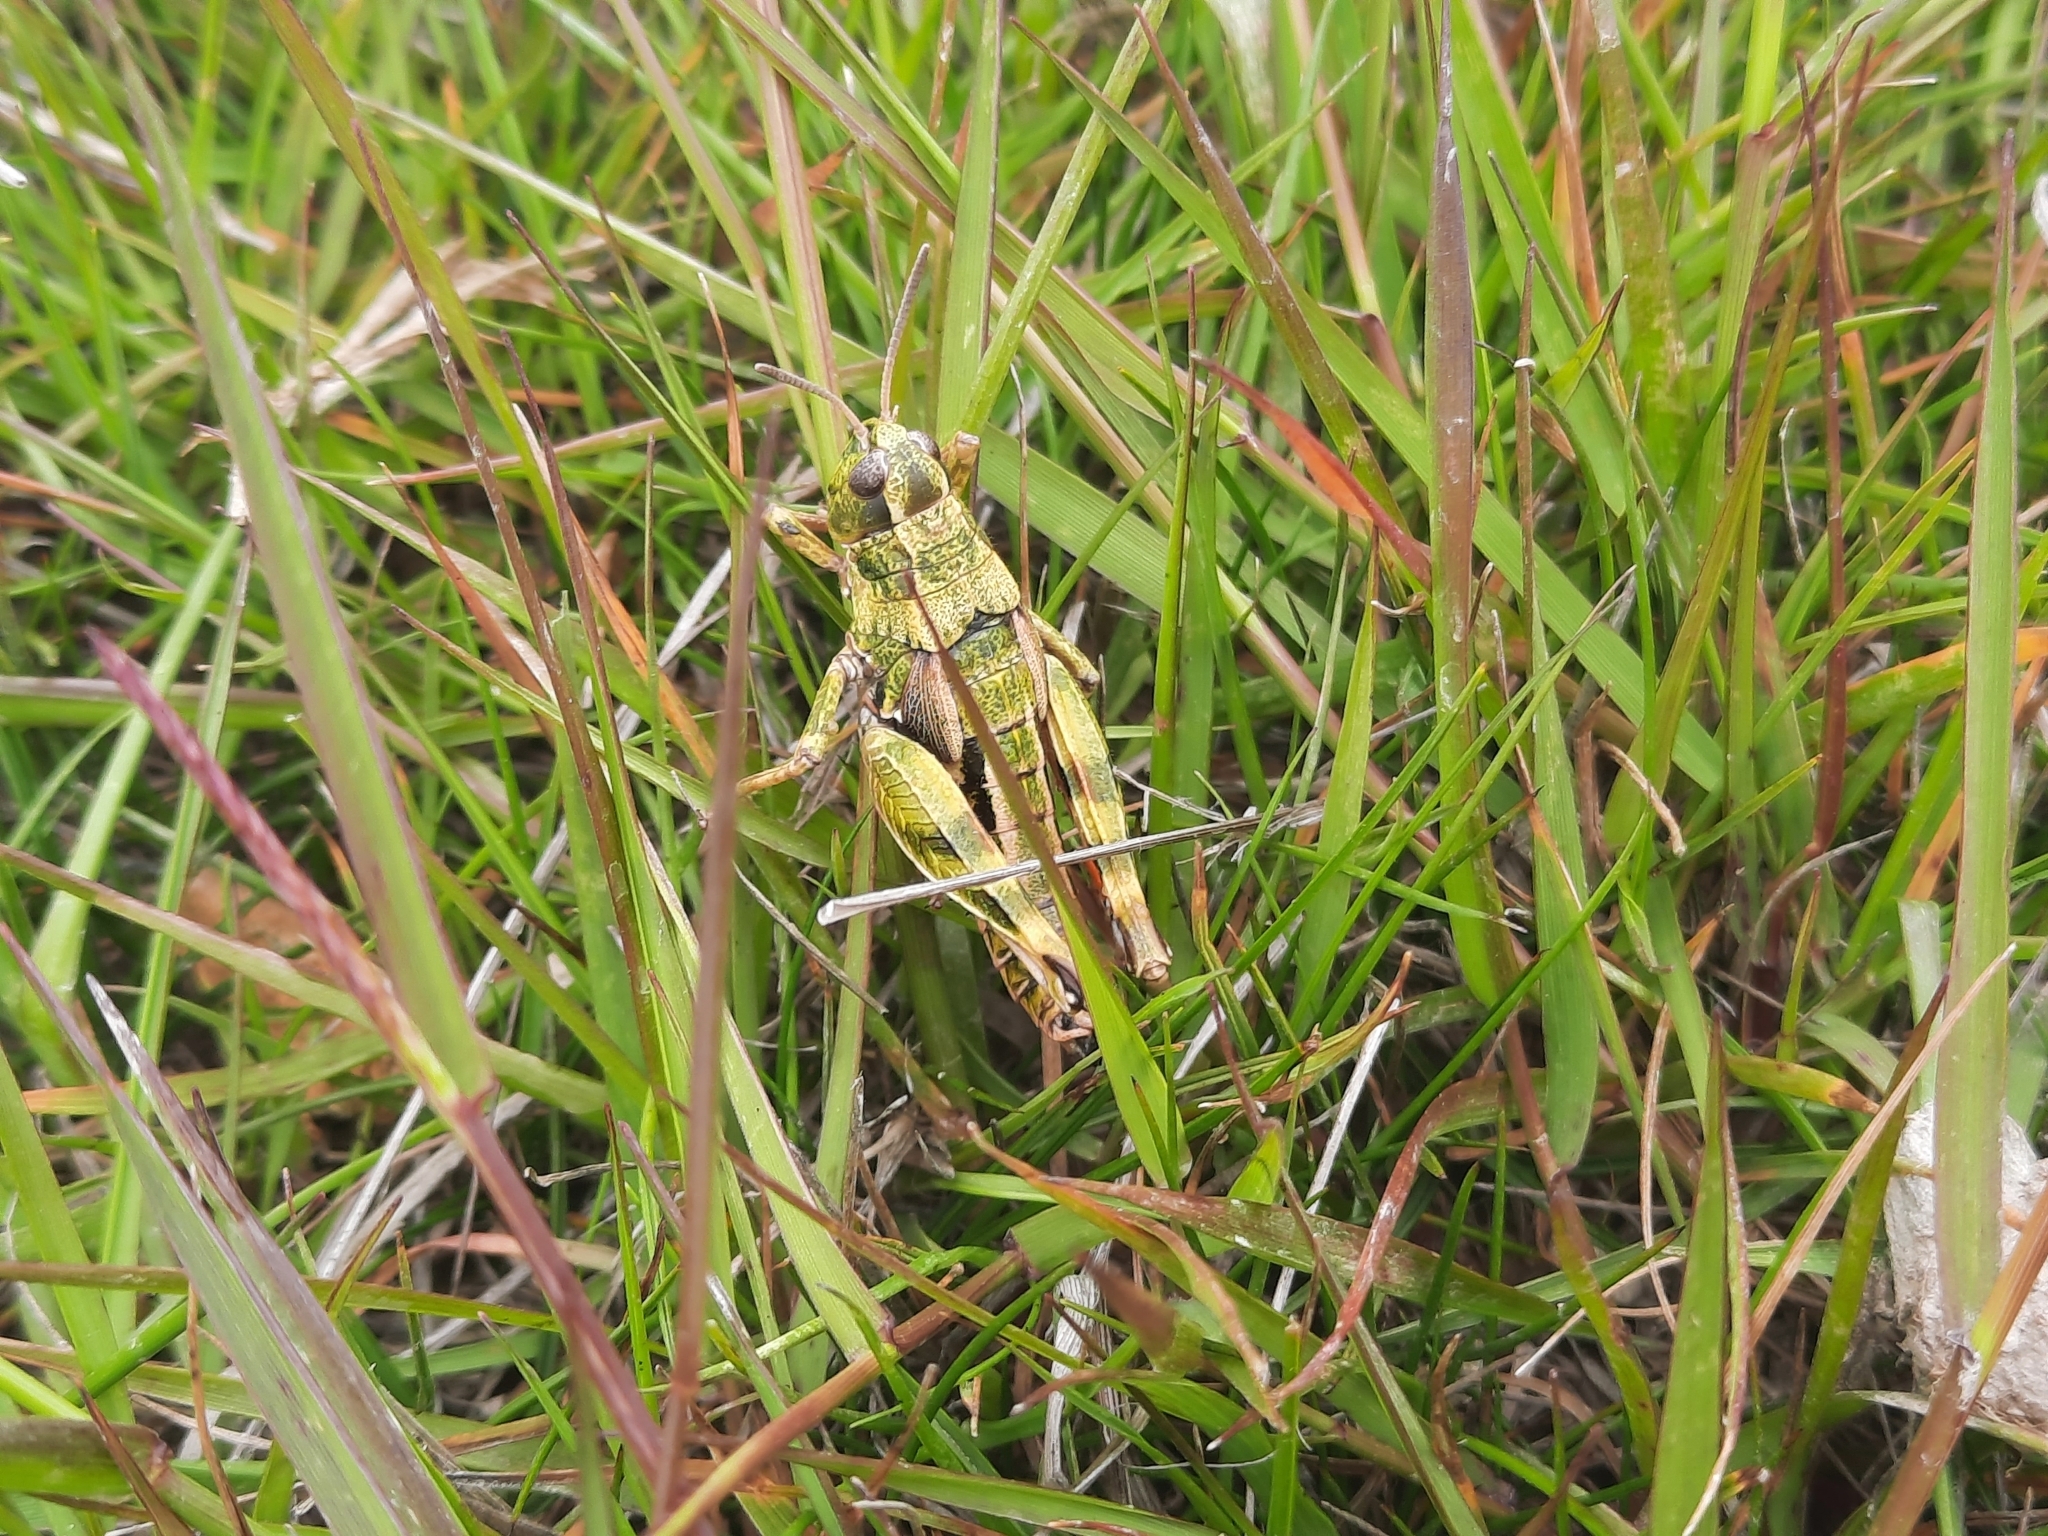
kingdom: Animalia
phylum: Arthropoda
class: Insecta
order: Orthoptera
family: Acrididae
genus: Sigaus
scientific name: Sigaus australis
